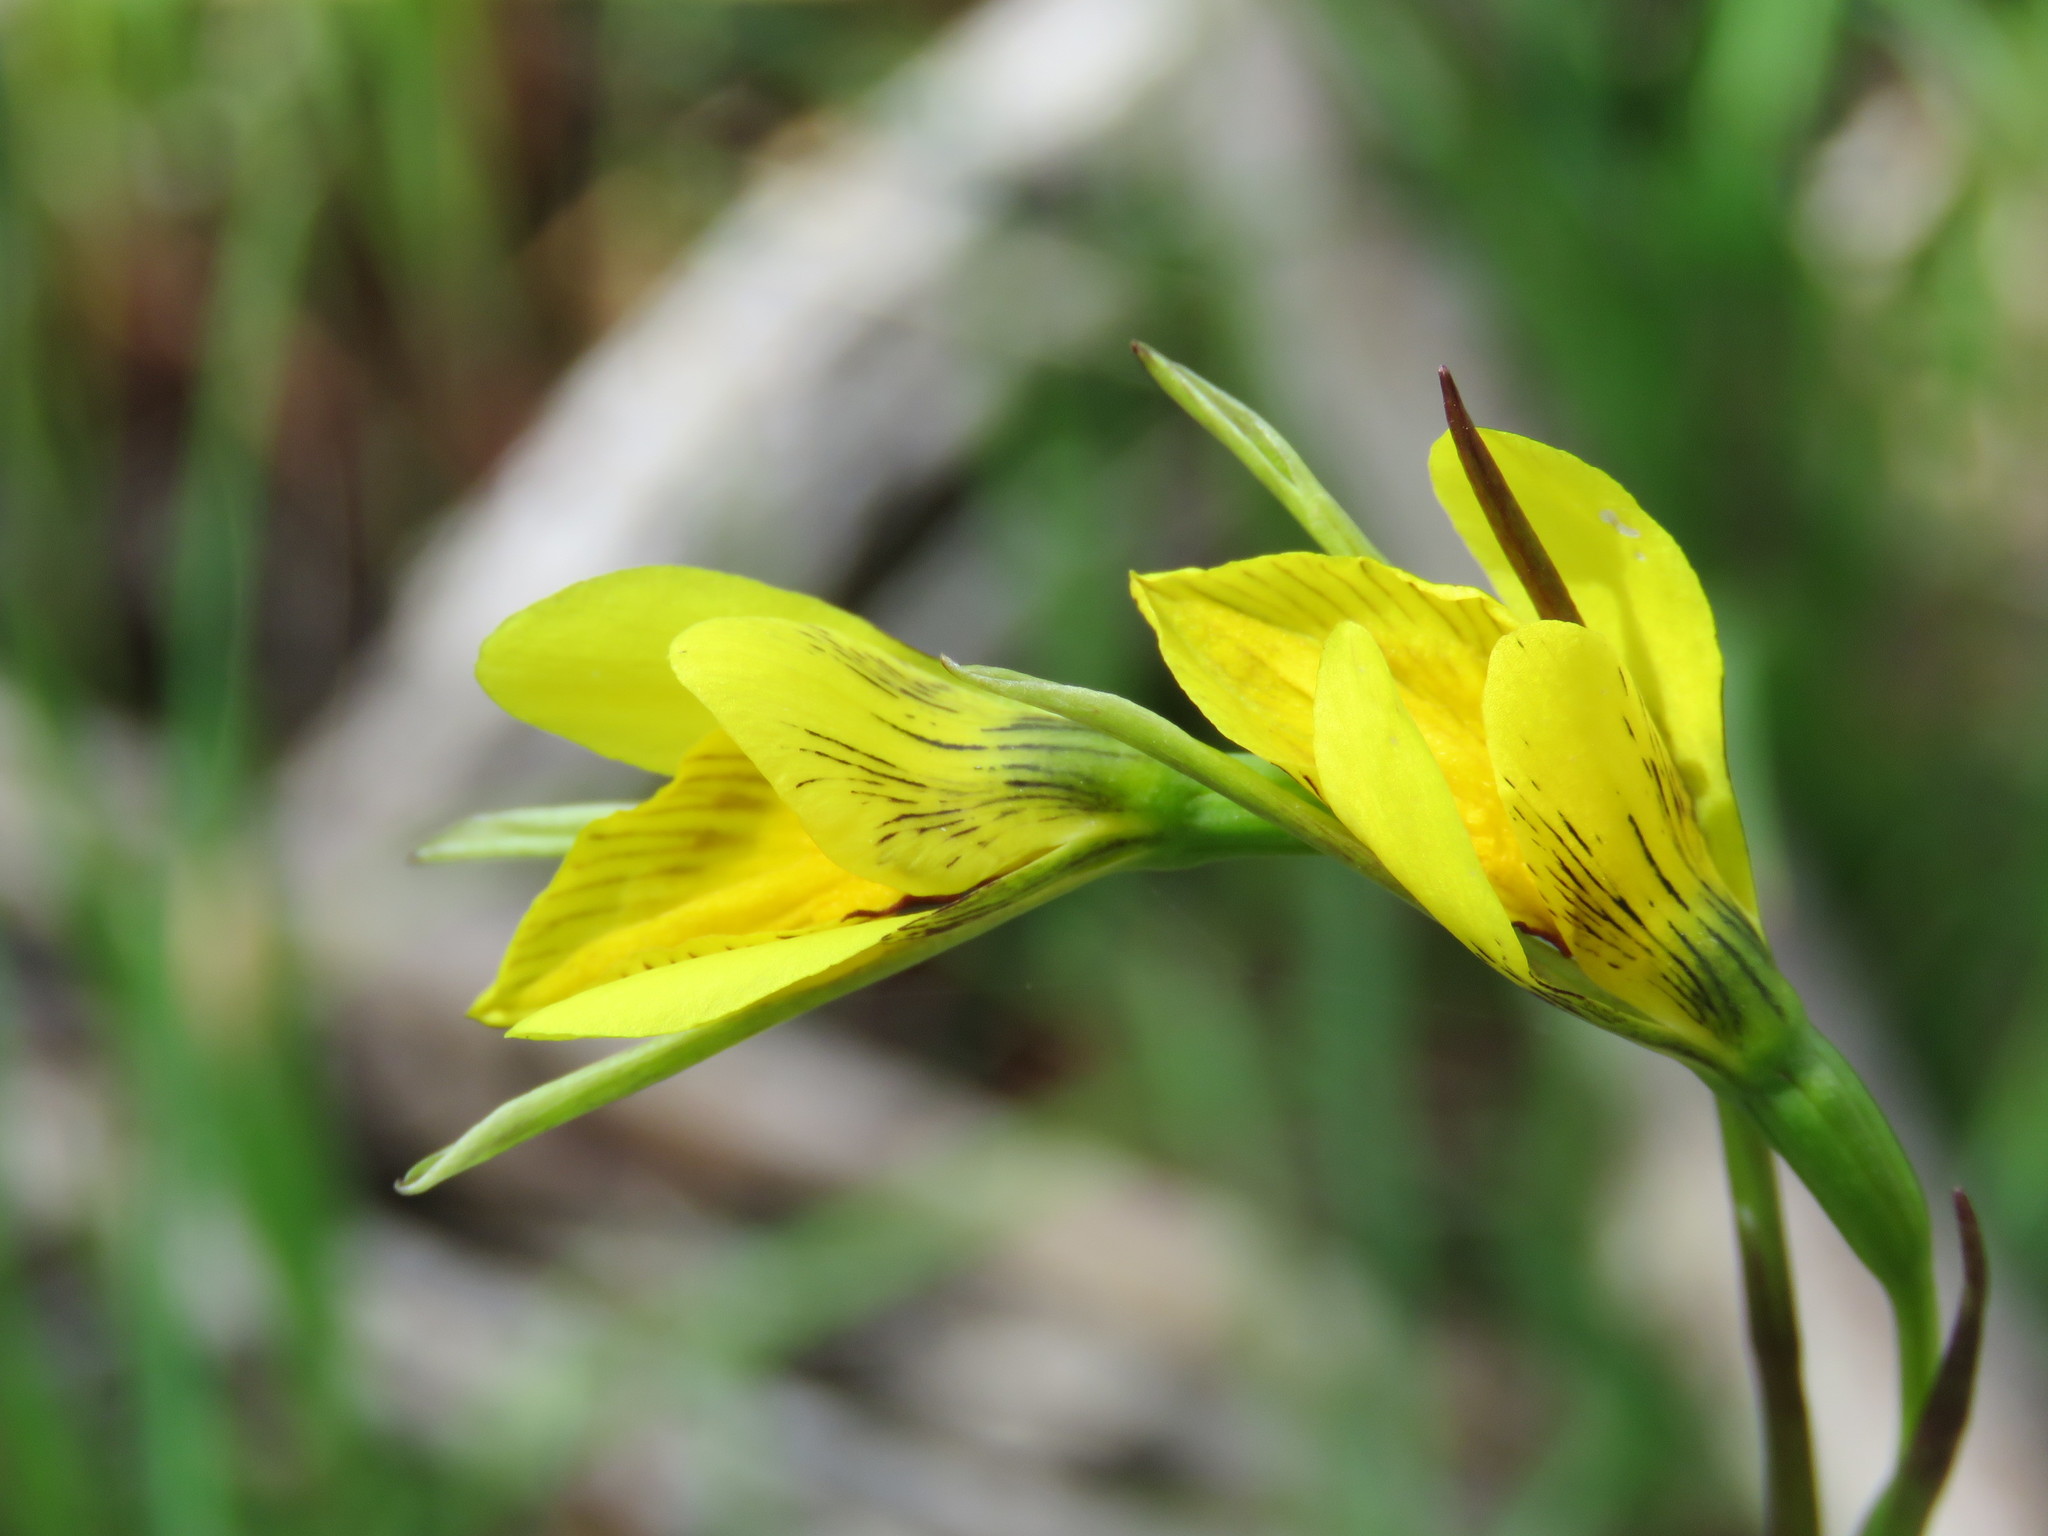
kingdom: Plantae
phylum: Tracheophyta
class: Liliopsida
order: Asparagales
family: Orchidaceae
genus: Diuris
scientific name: Diuris chryseopsis
